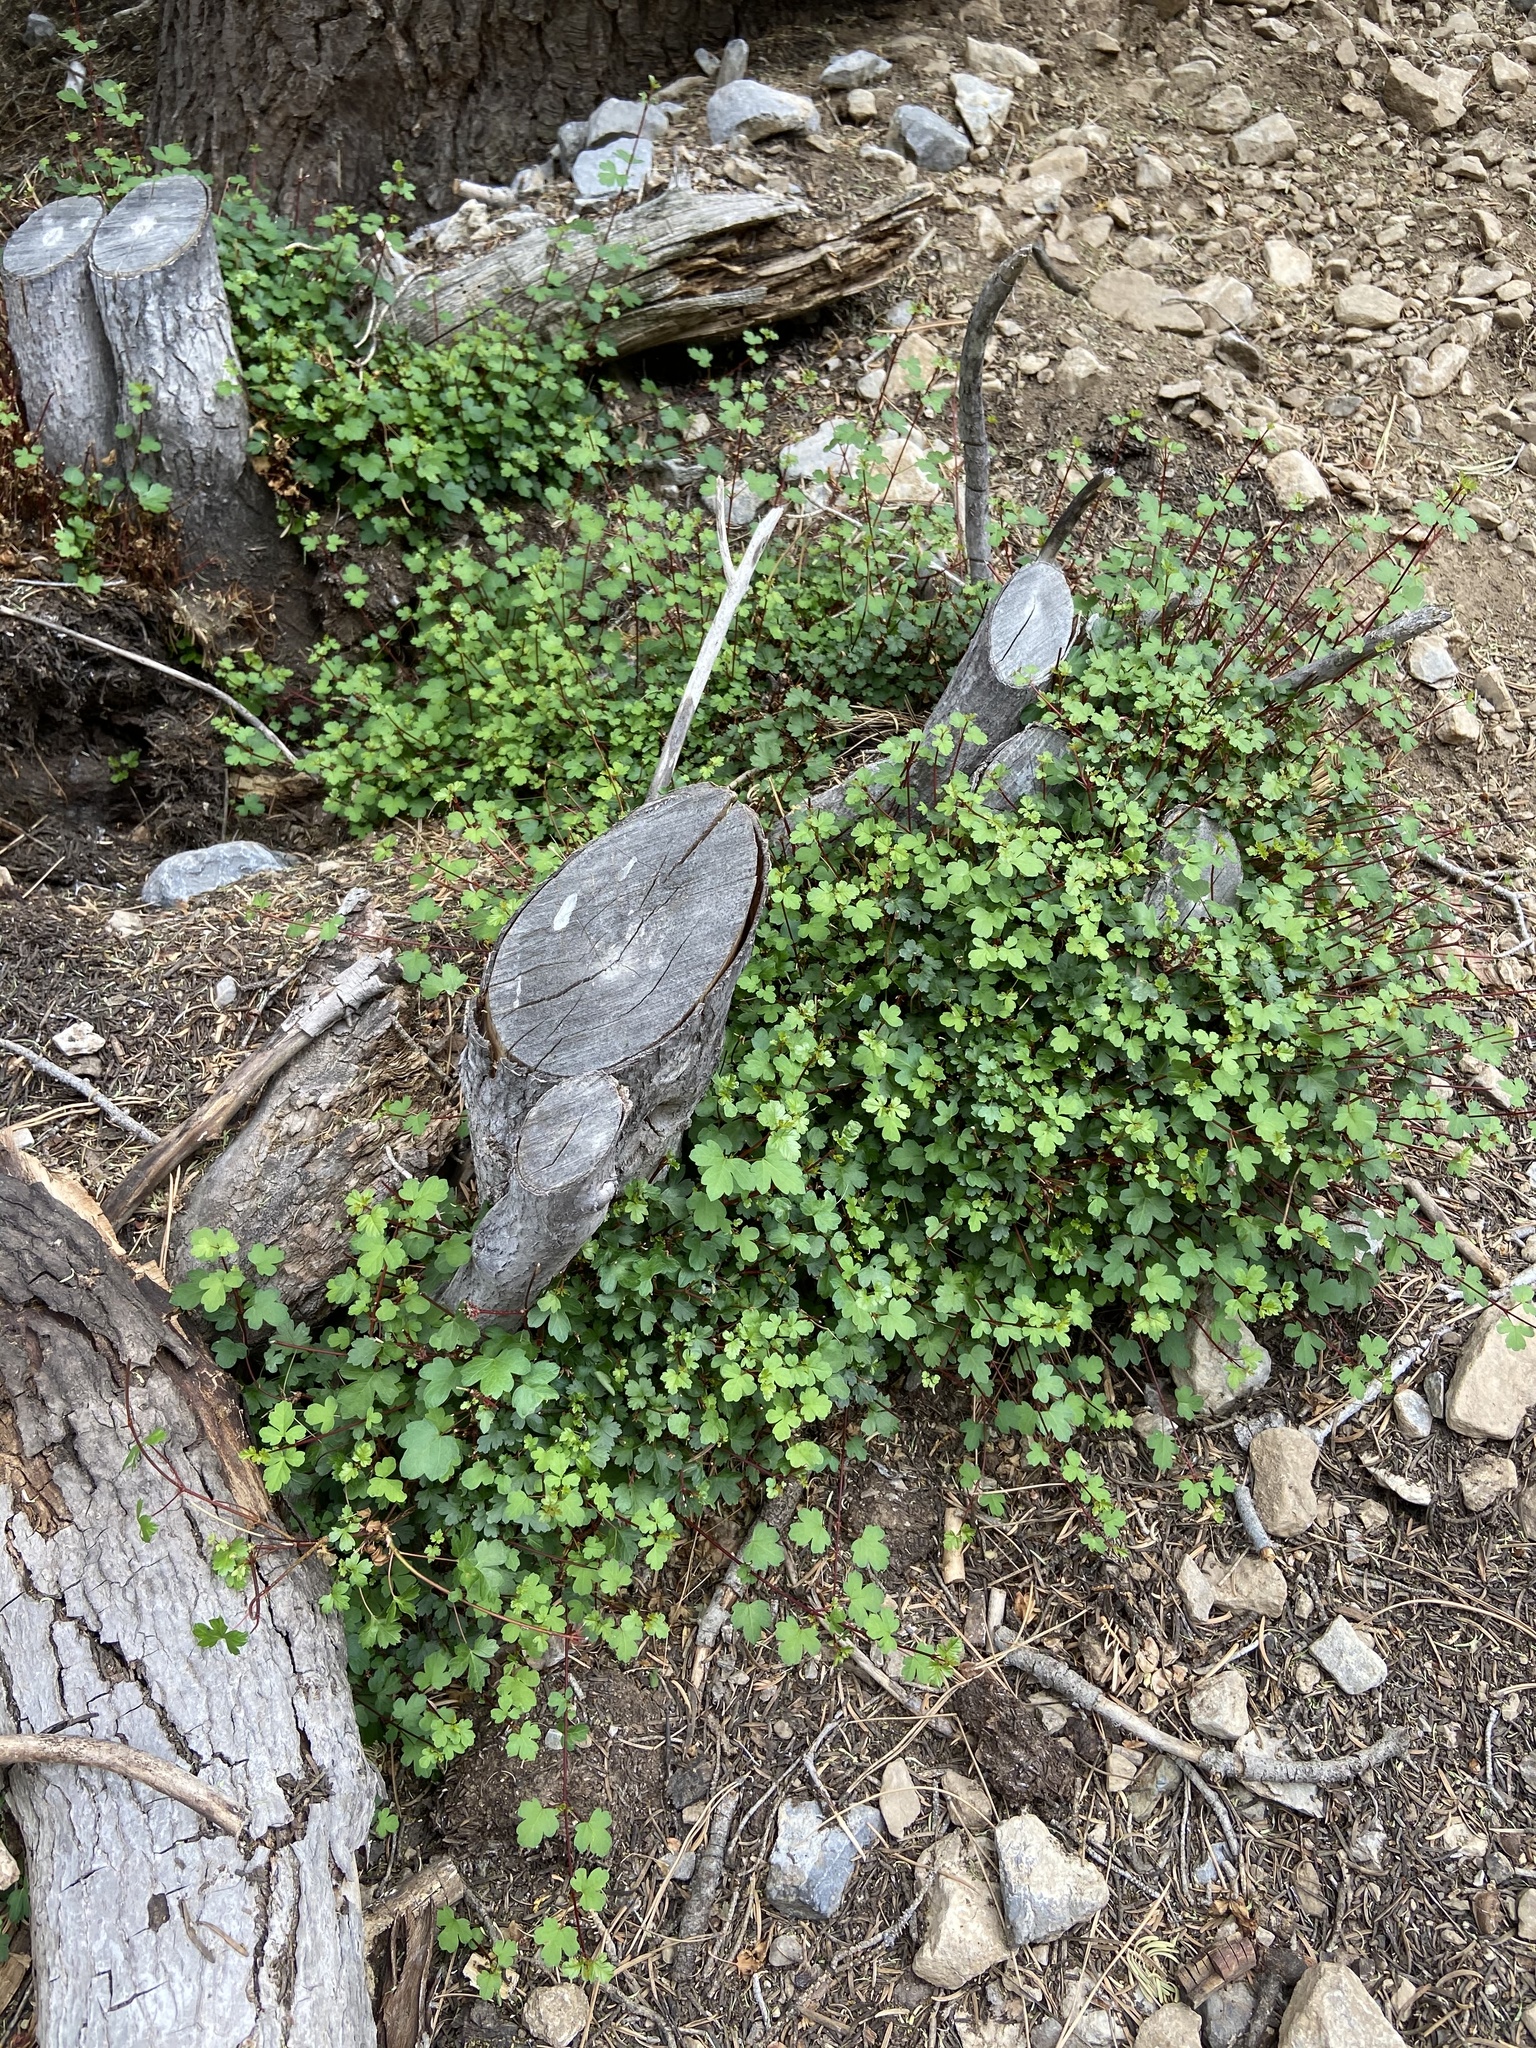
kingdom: Plantae
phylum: Tracheophyta
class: Magnoliopsida
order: Sapindales
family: Sapindaceae
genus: Acer
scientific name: Acer glabrum
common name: Rocky mountain maple
